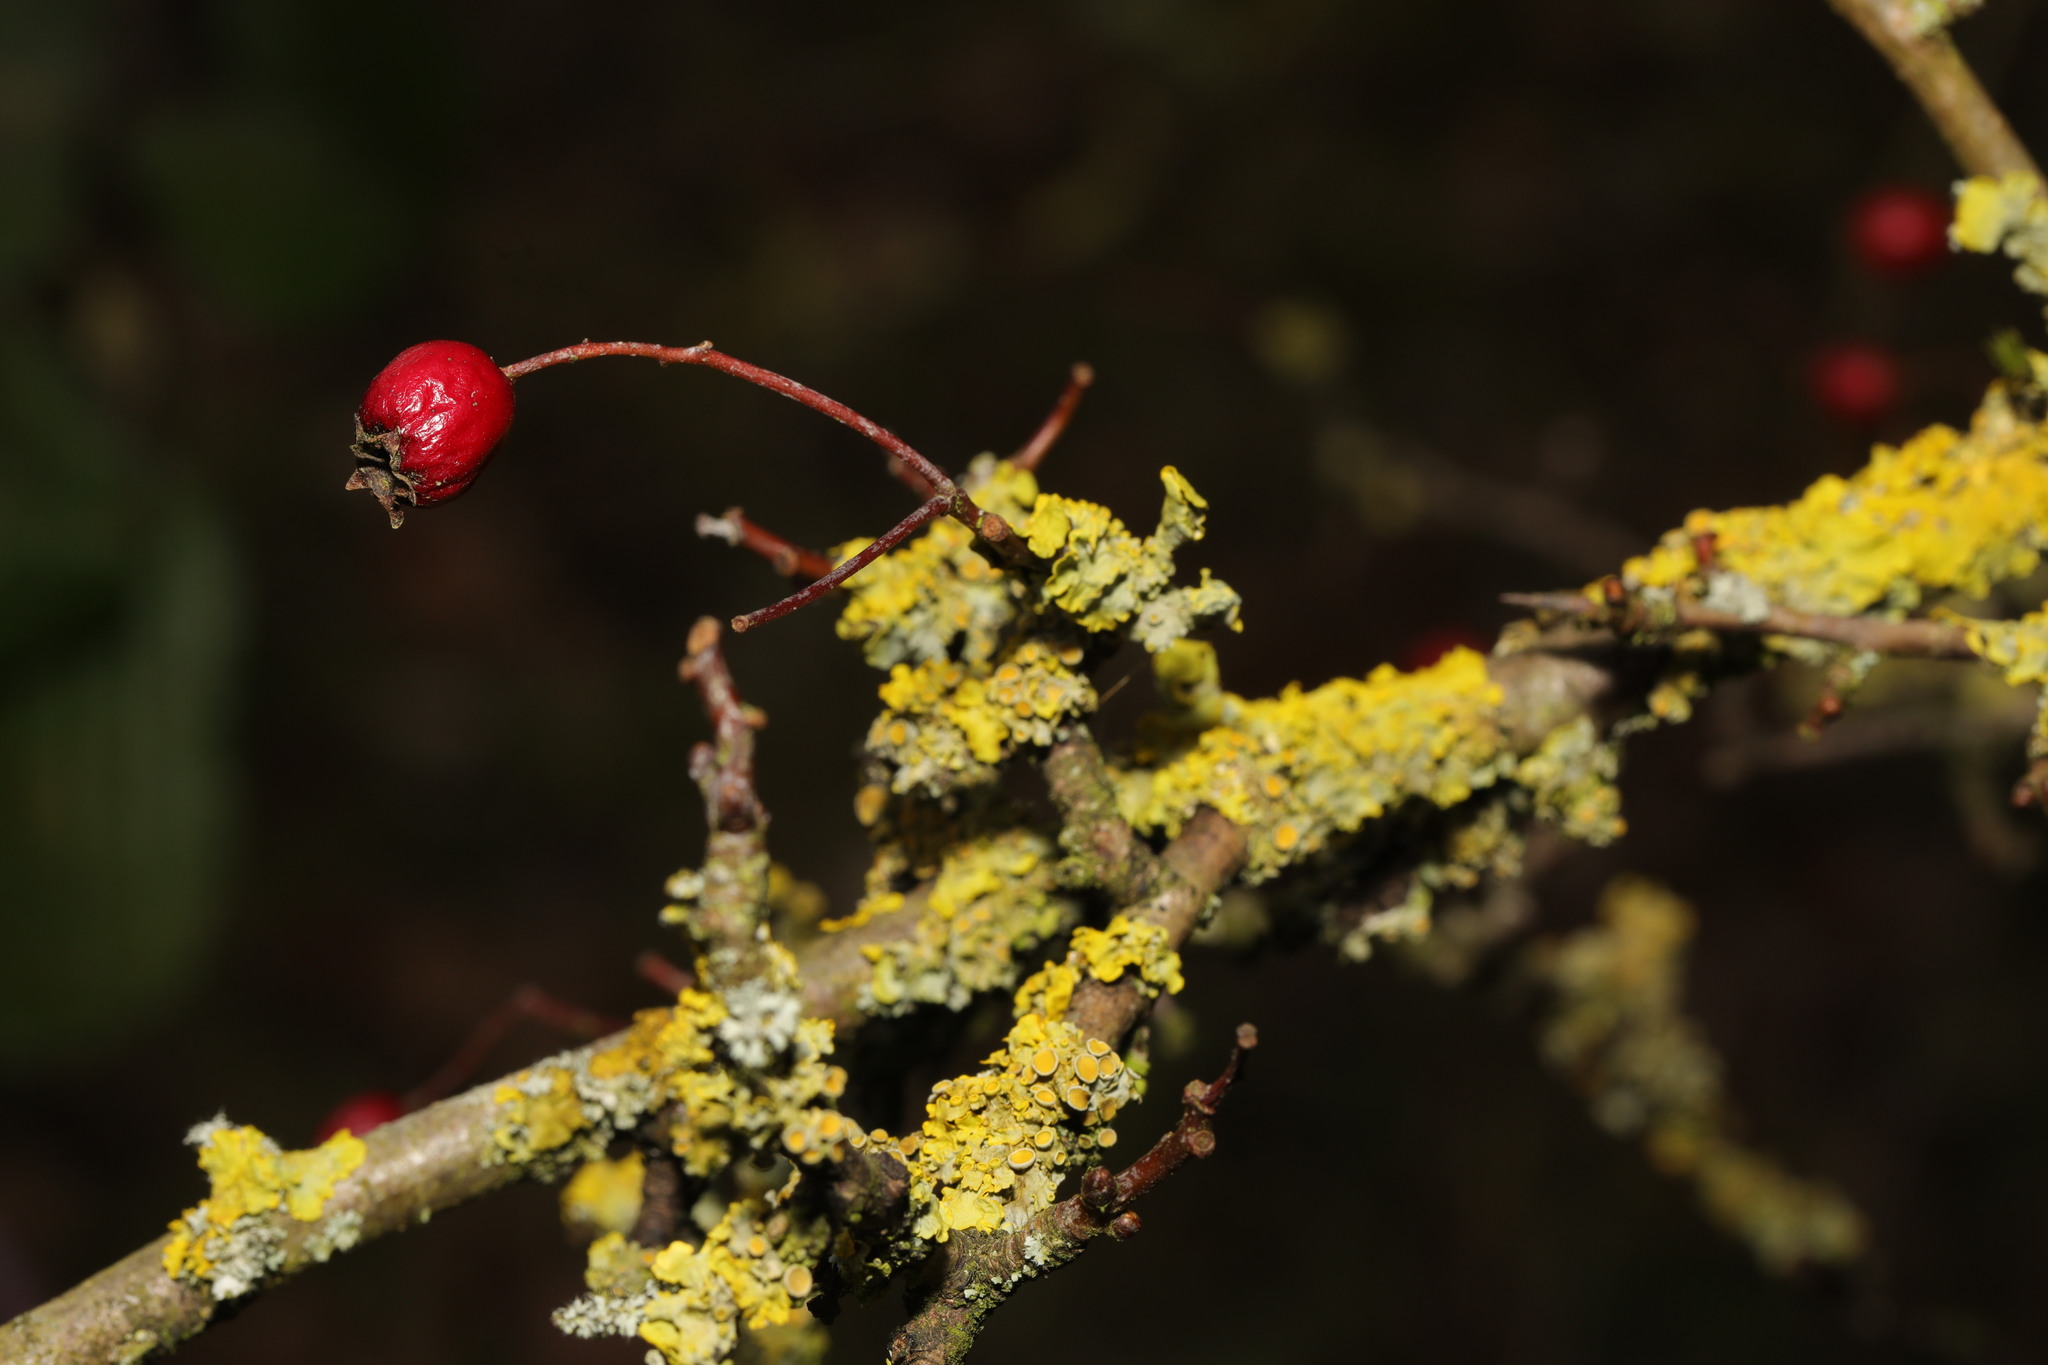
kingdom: Fungi
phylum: Ascomycota
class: Lecanoromycetes
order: Teloschistales
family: Teloschistaceae
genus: Xanthoria
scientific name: Xanthoria parietina
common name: Common orange lichen
